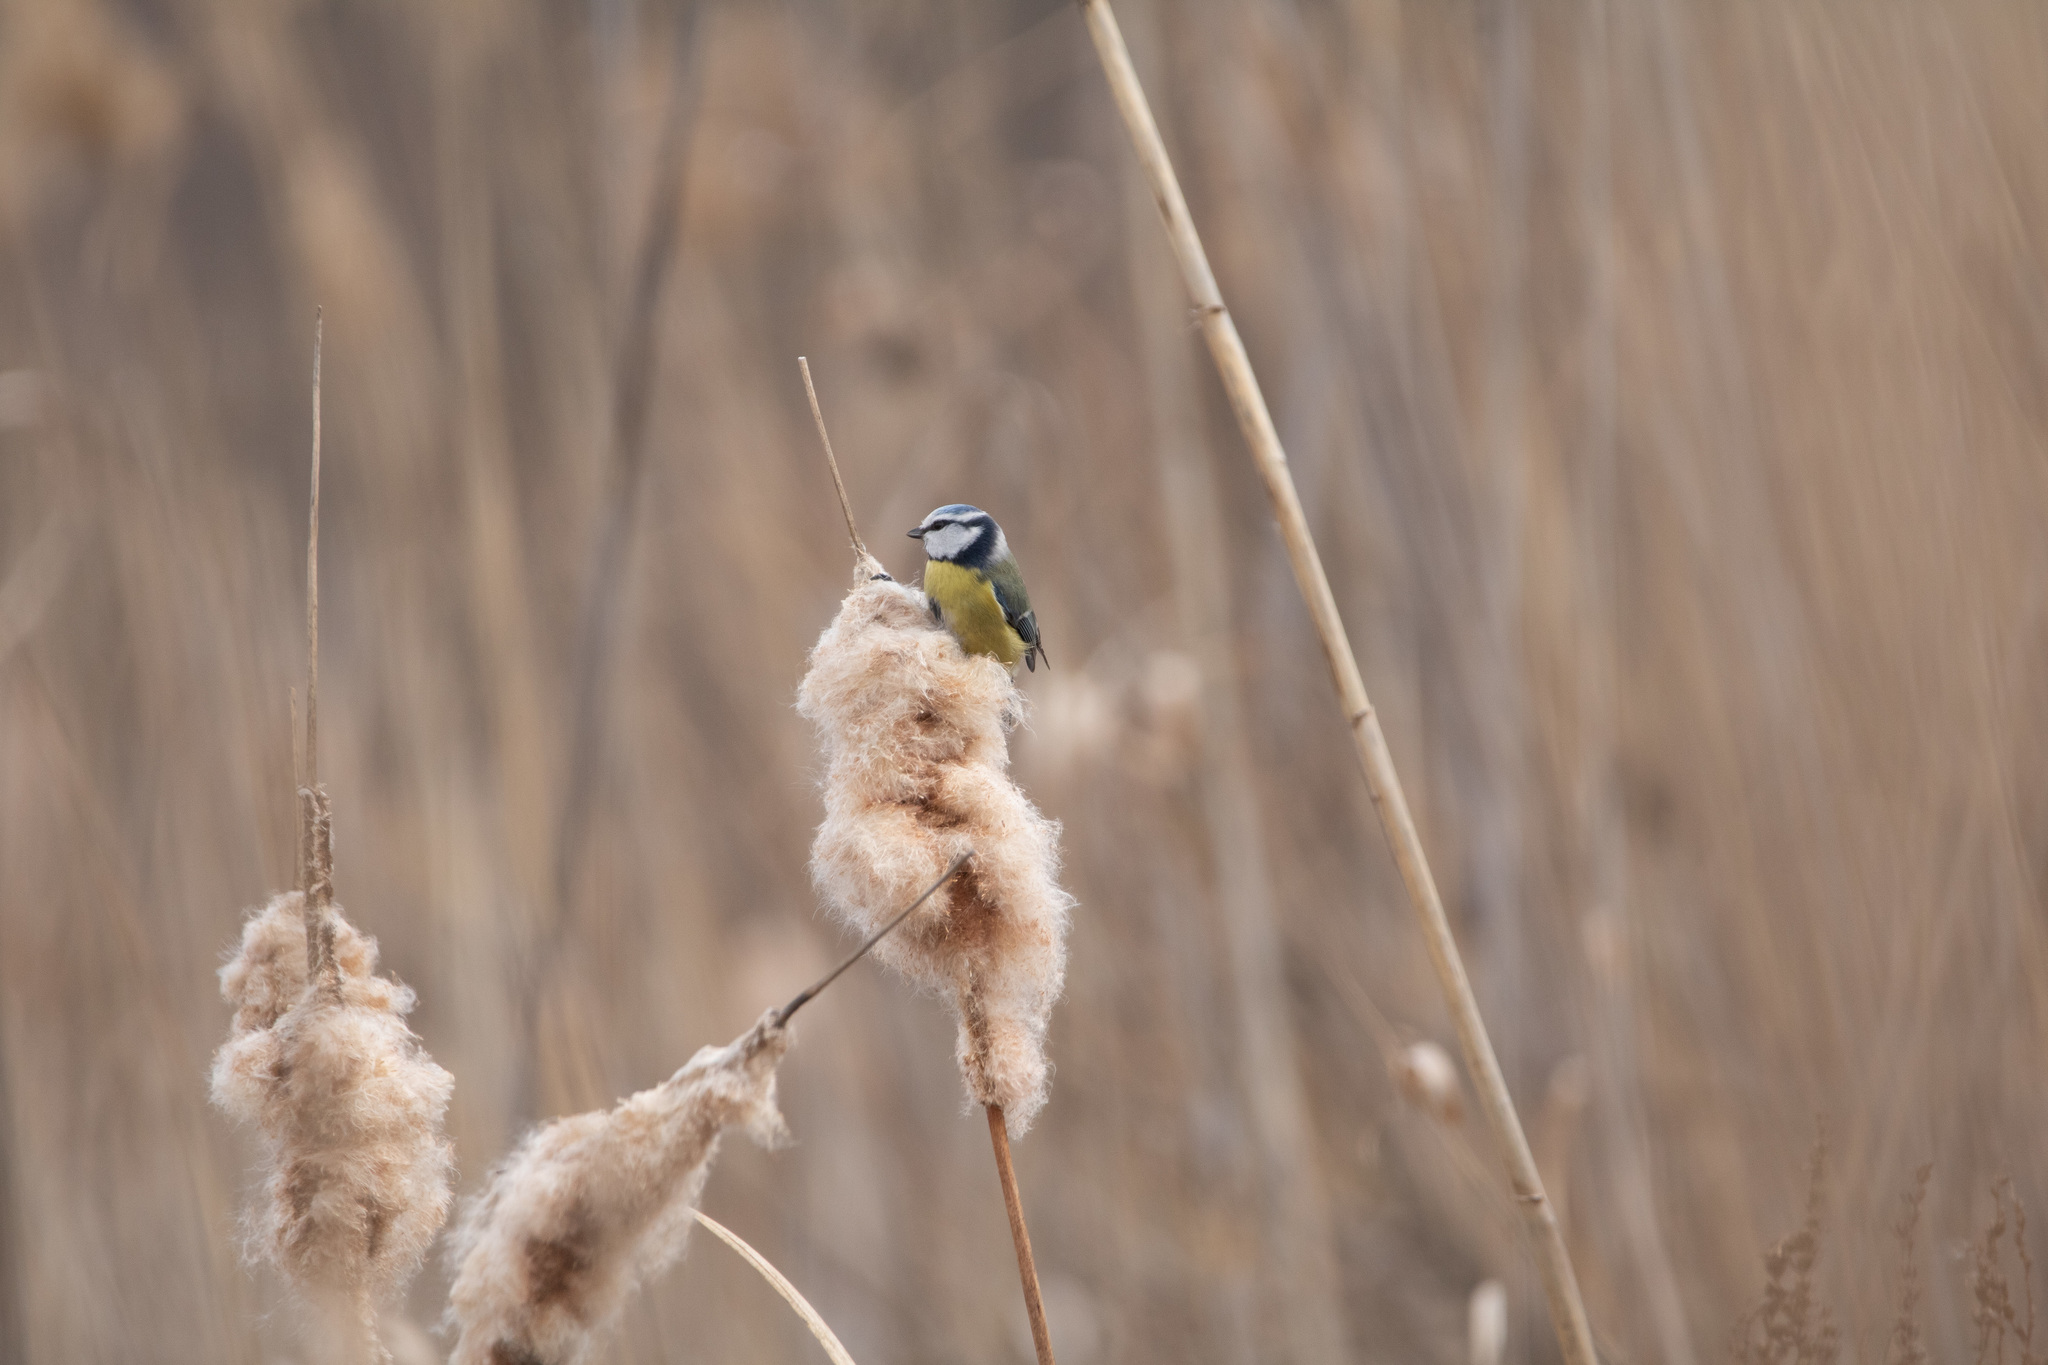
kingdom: Animalia
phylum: Chordata
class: Aves
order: Passeriformes
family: Paridae
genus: Cyanistes
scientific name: Cyanistes caeruleus
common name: Eurasian blue tit
